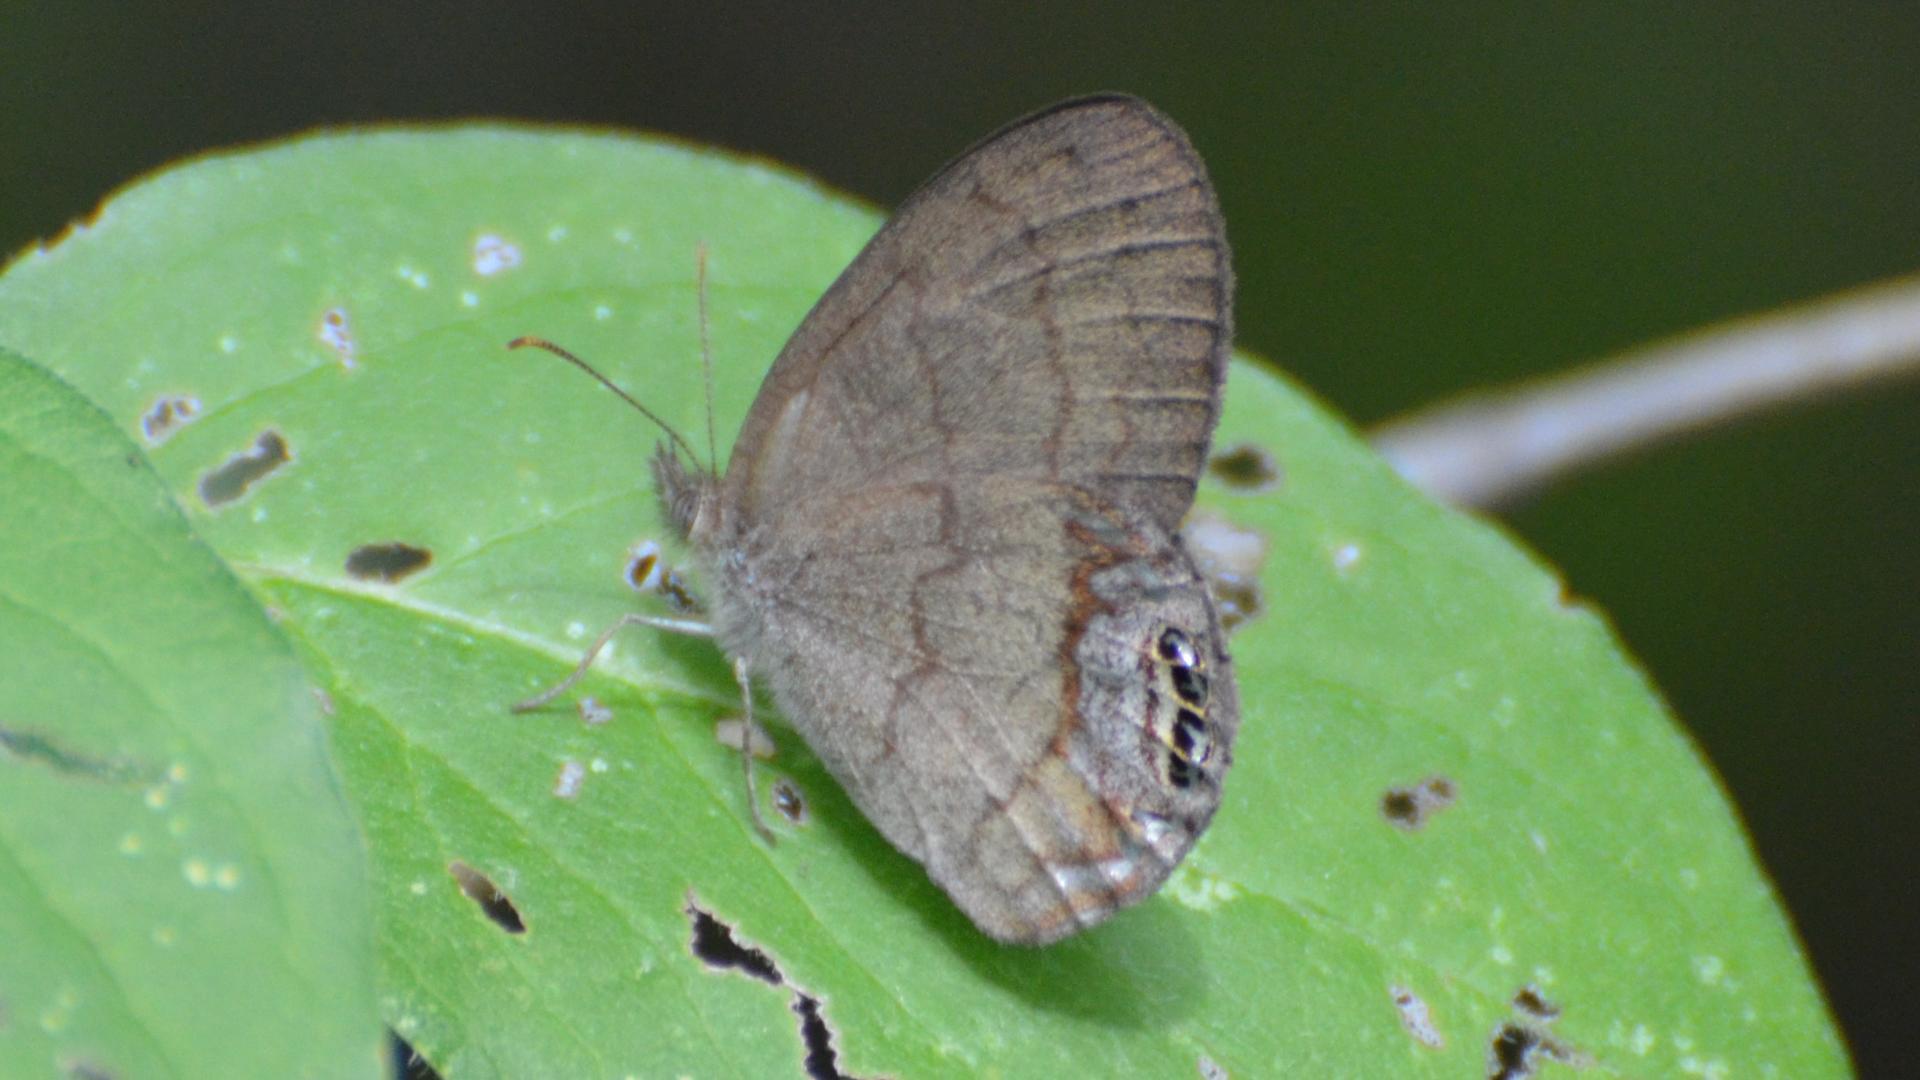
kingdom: Animalia
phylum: Arthropoda
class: Insecta
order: Lepidoptera
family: Nymphalidae
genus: Euptychia
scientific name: Euptychia cornelius
